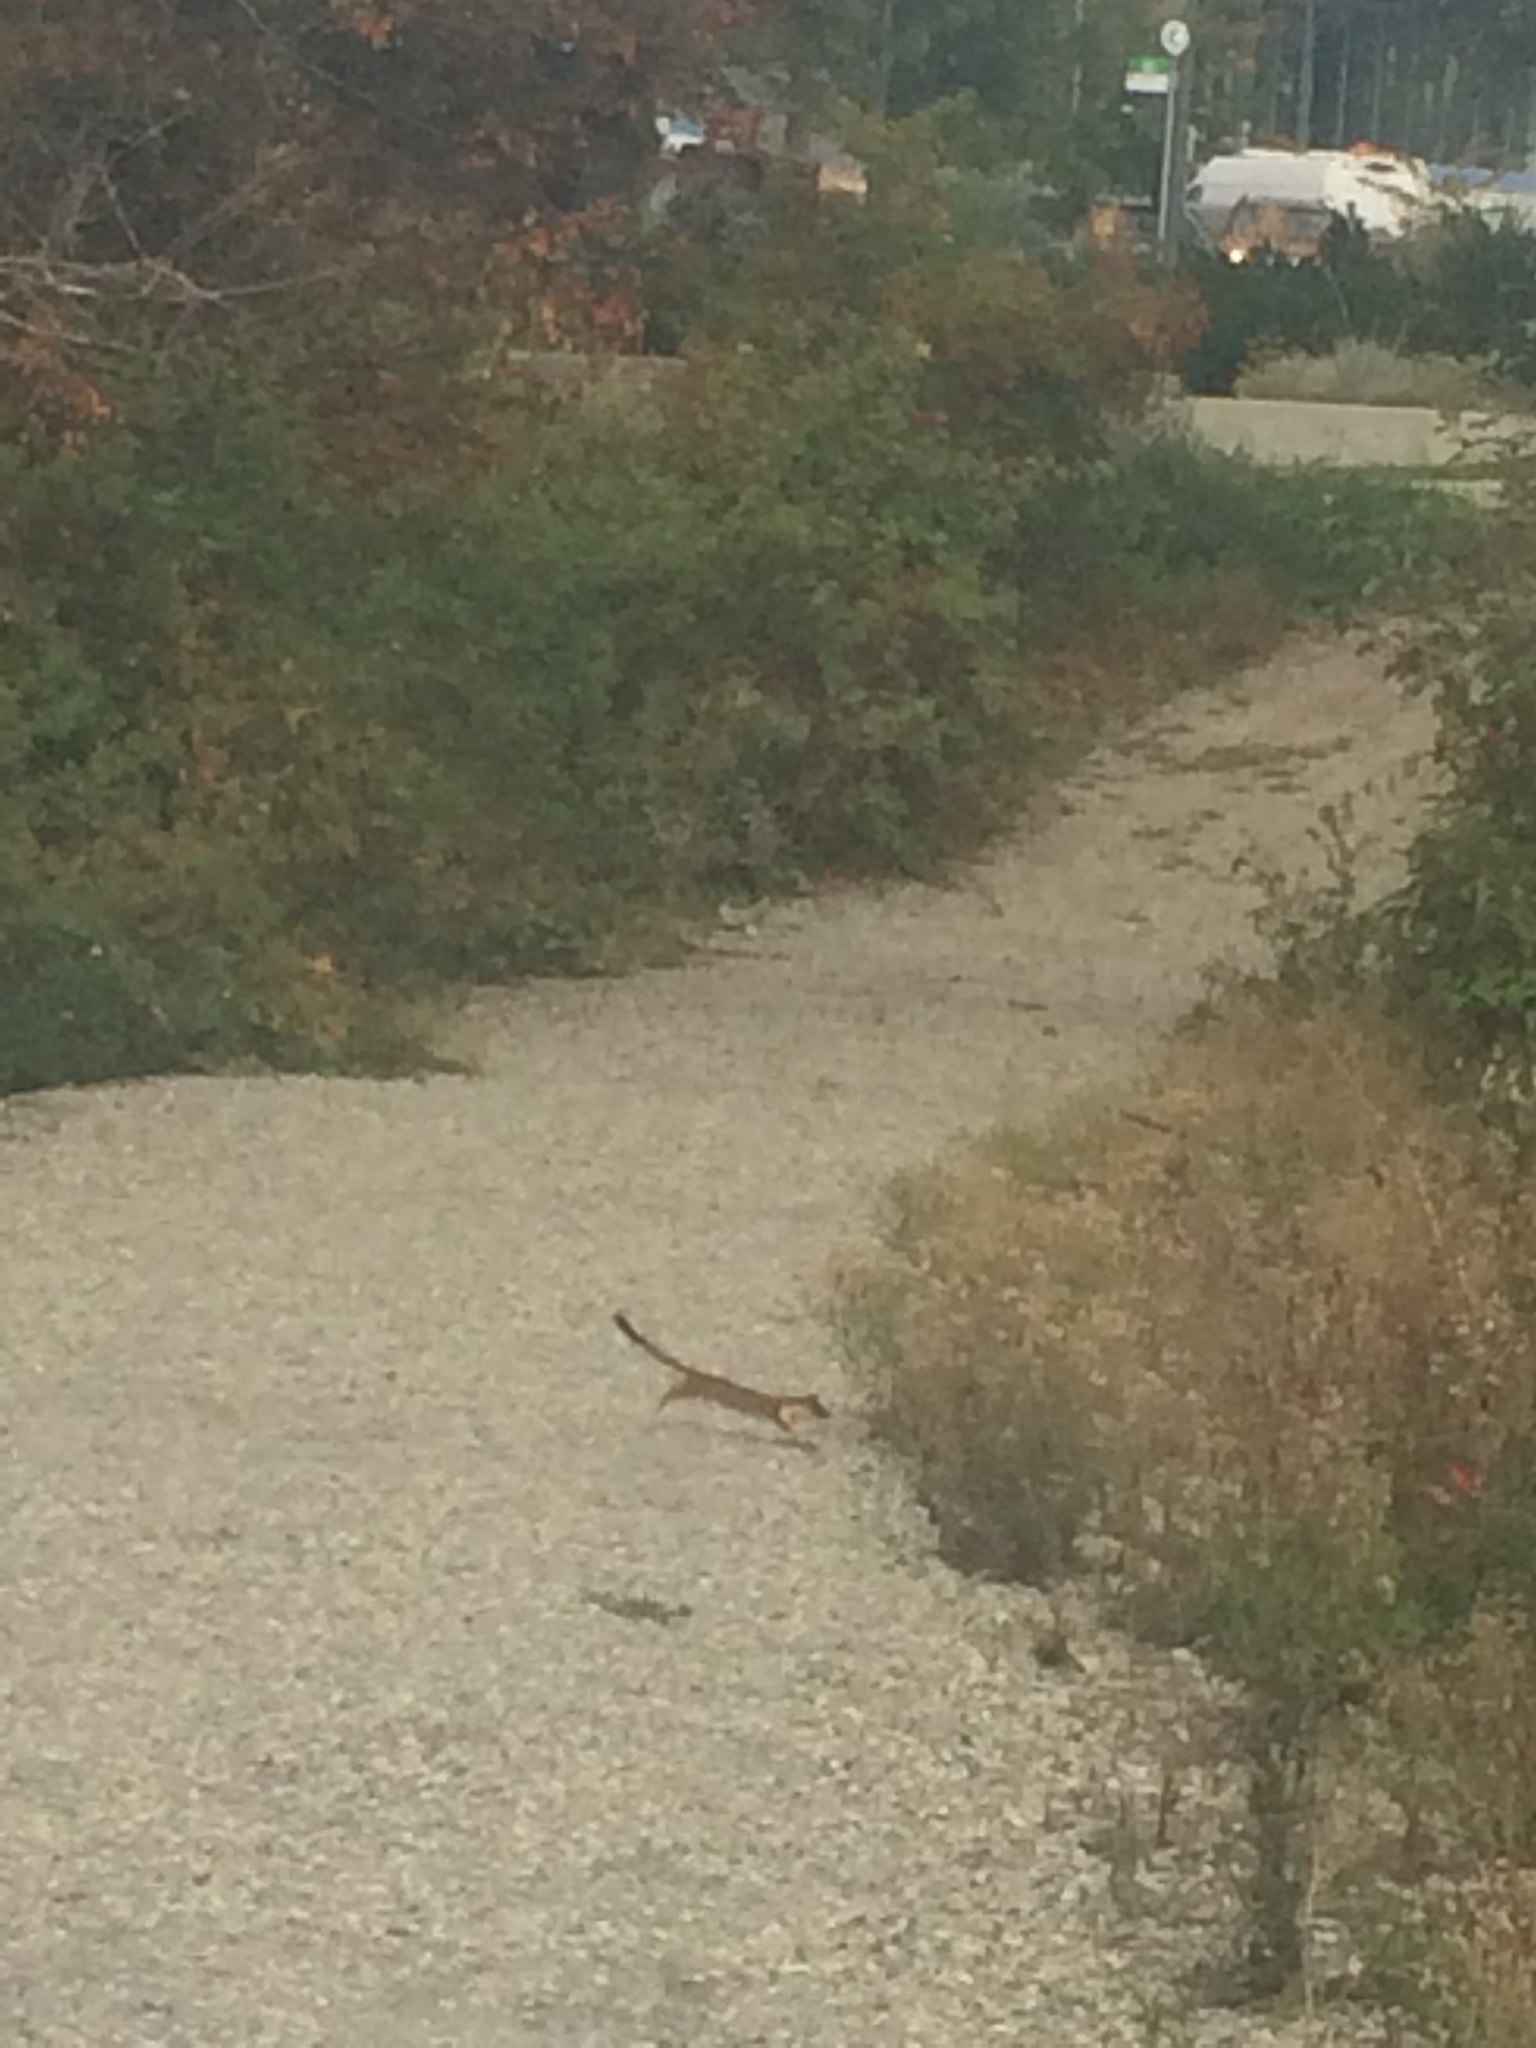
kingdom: Animalia
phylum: Chordata
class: Mammalia
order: Carnivora
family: Mustelidae
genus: Mustela
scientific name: Mustela
